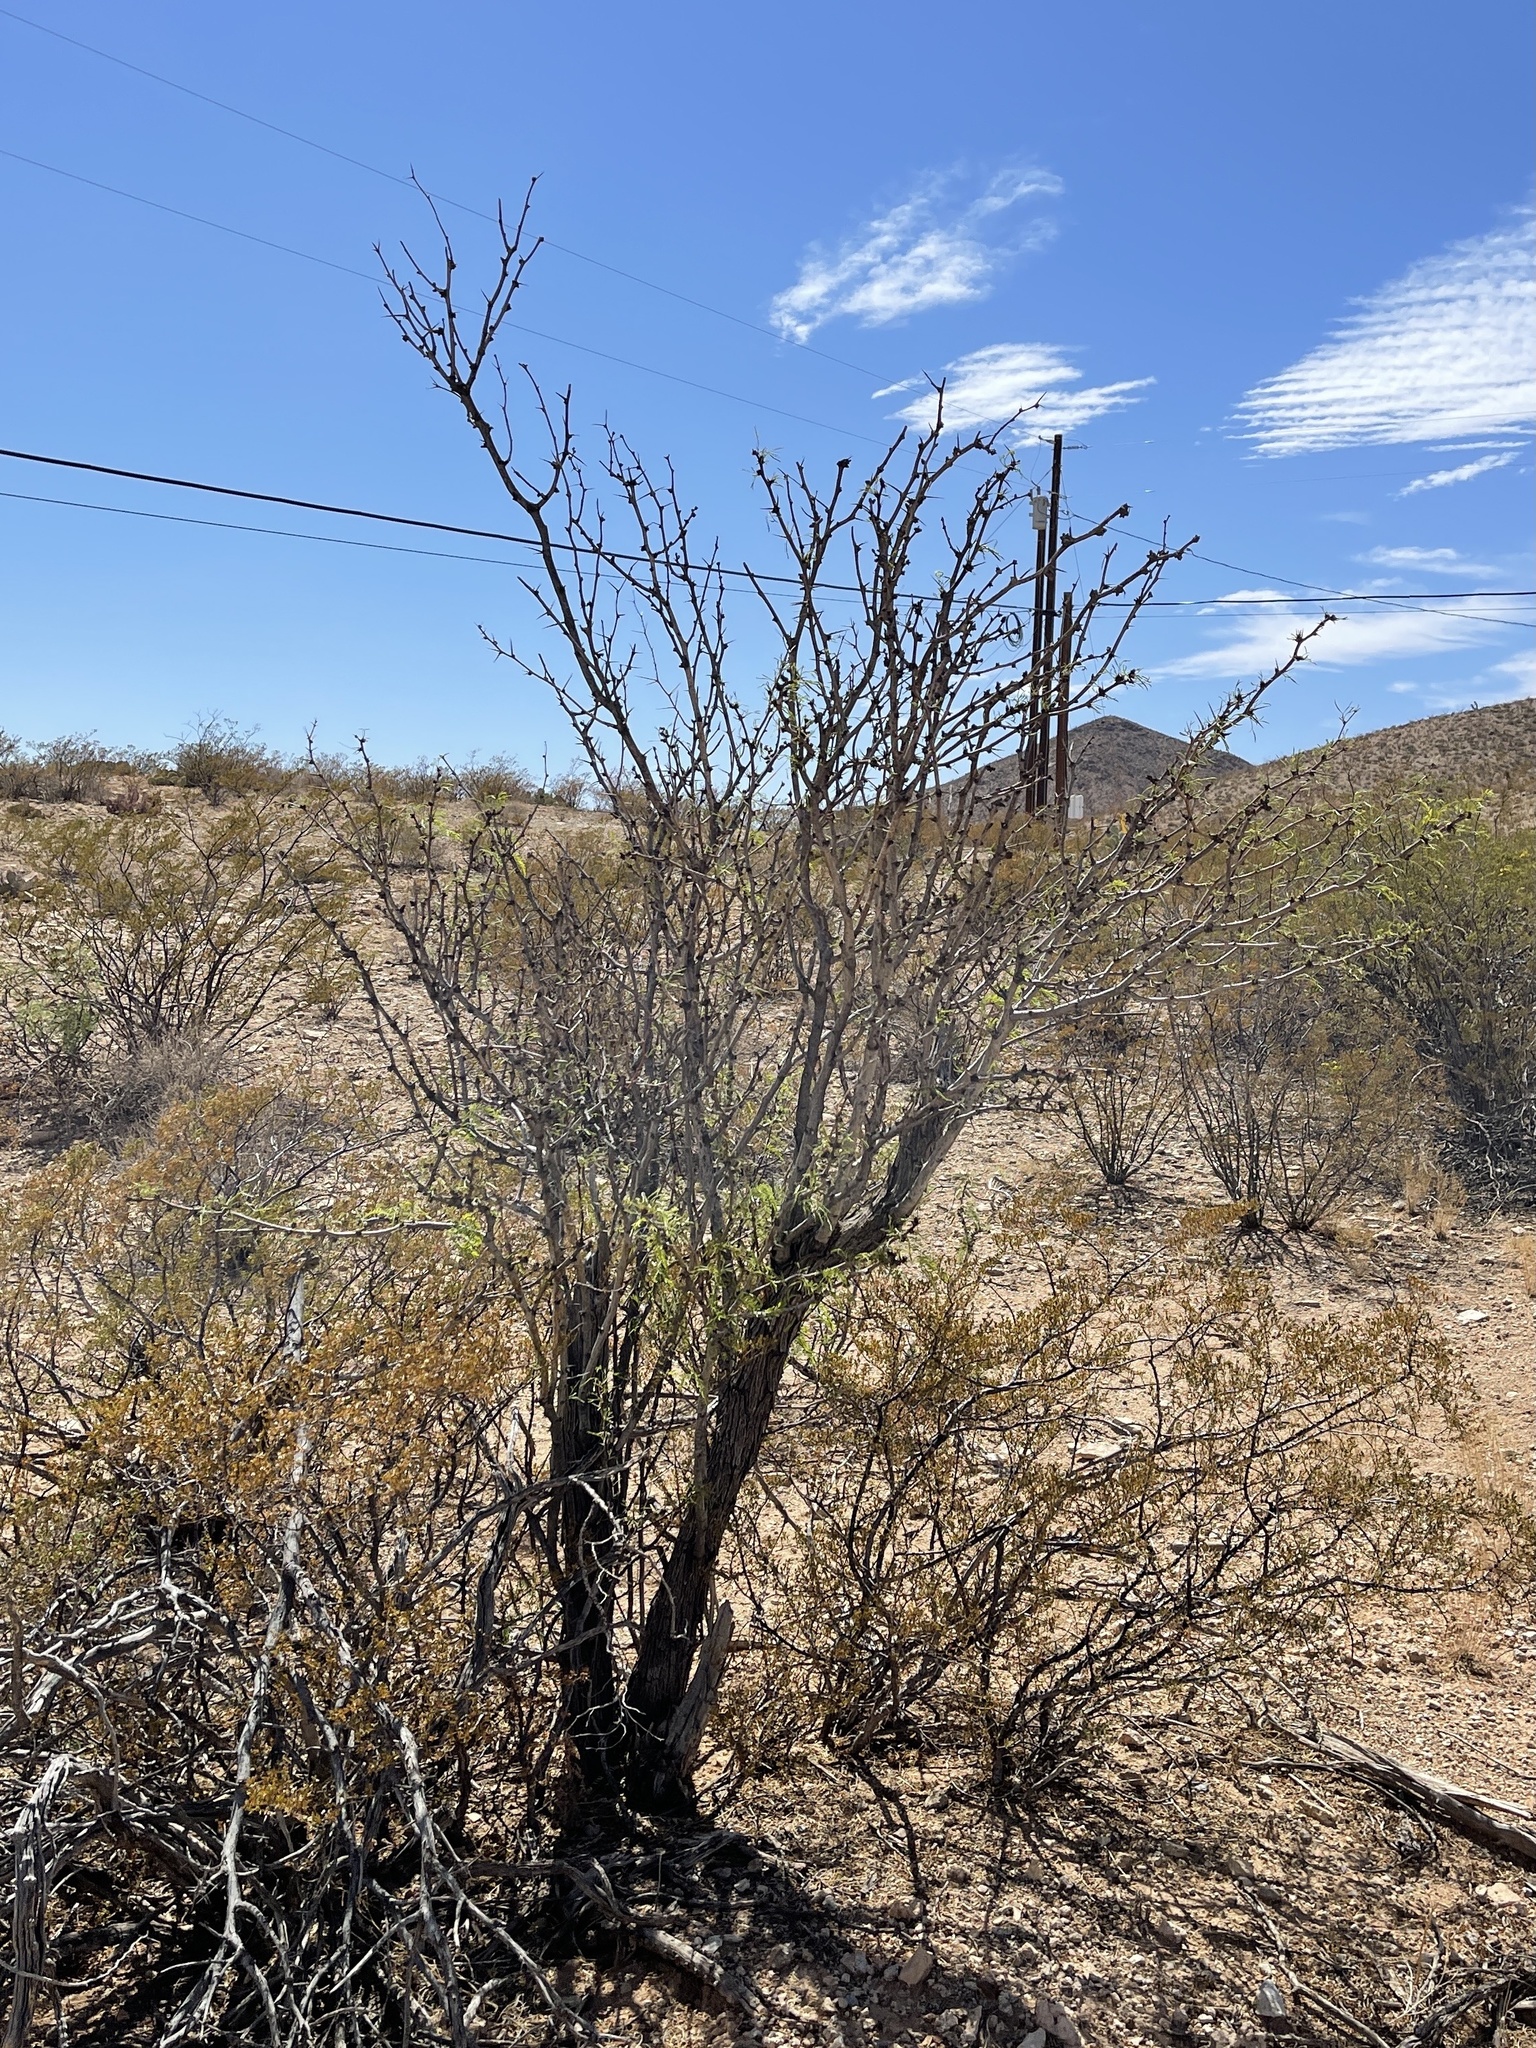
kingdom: Plantae
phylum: Tracheophyta
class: Magnoliopsida
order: Fabales
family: Fabaceae
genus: Prosopis
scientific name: Prosopis glandulosa
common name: Honey mesquite
